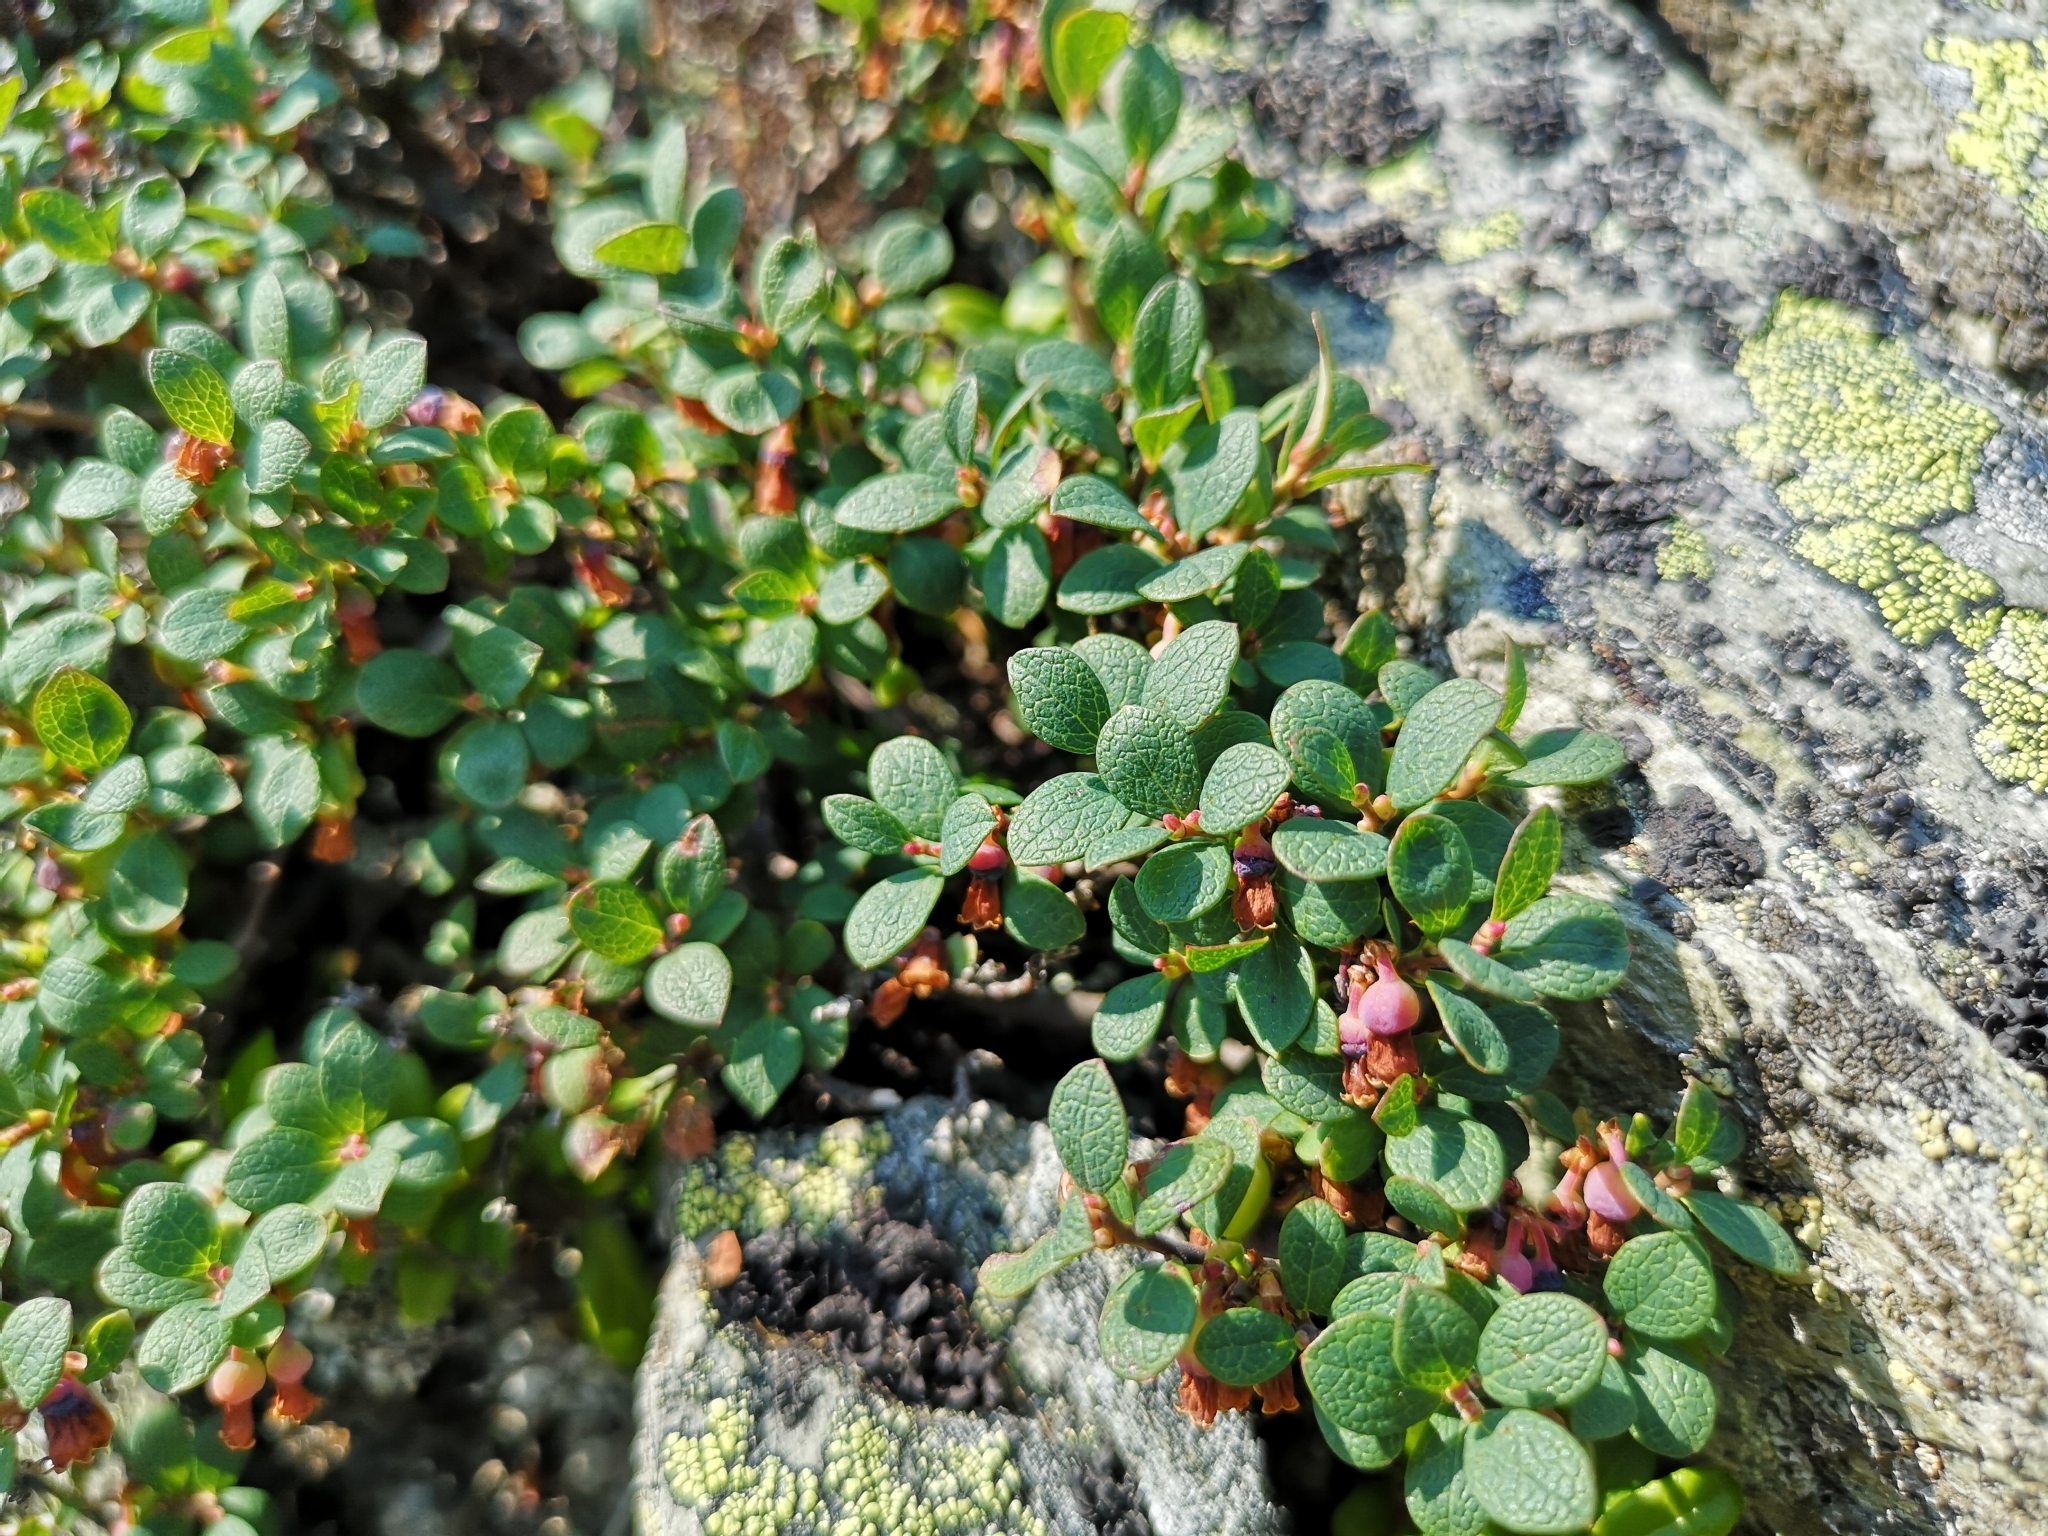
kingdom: Plantae
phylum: Tracheophyta
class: Magnoliopsida
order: Ericales
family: Ericaceae
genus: Vaccinium
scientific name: Vaccinium uliginosum
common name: Bog bilberry
